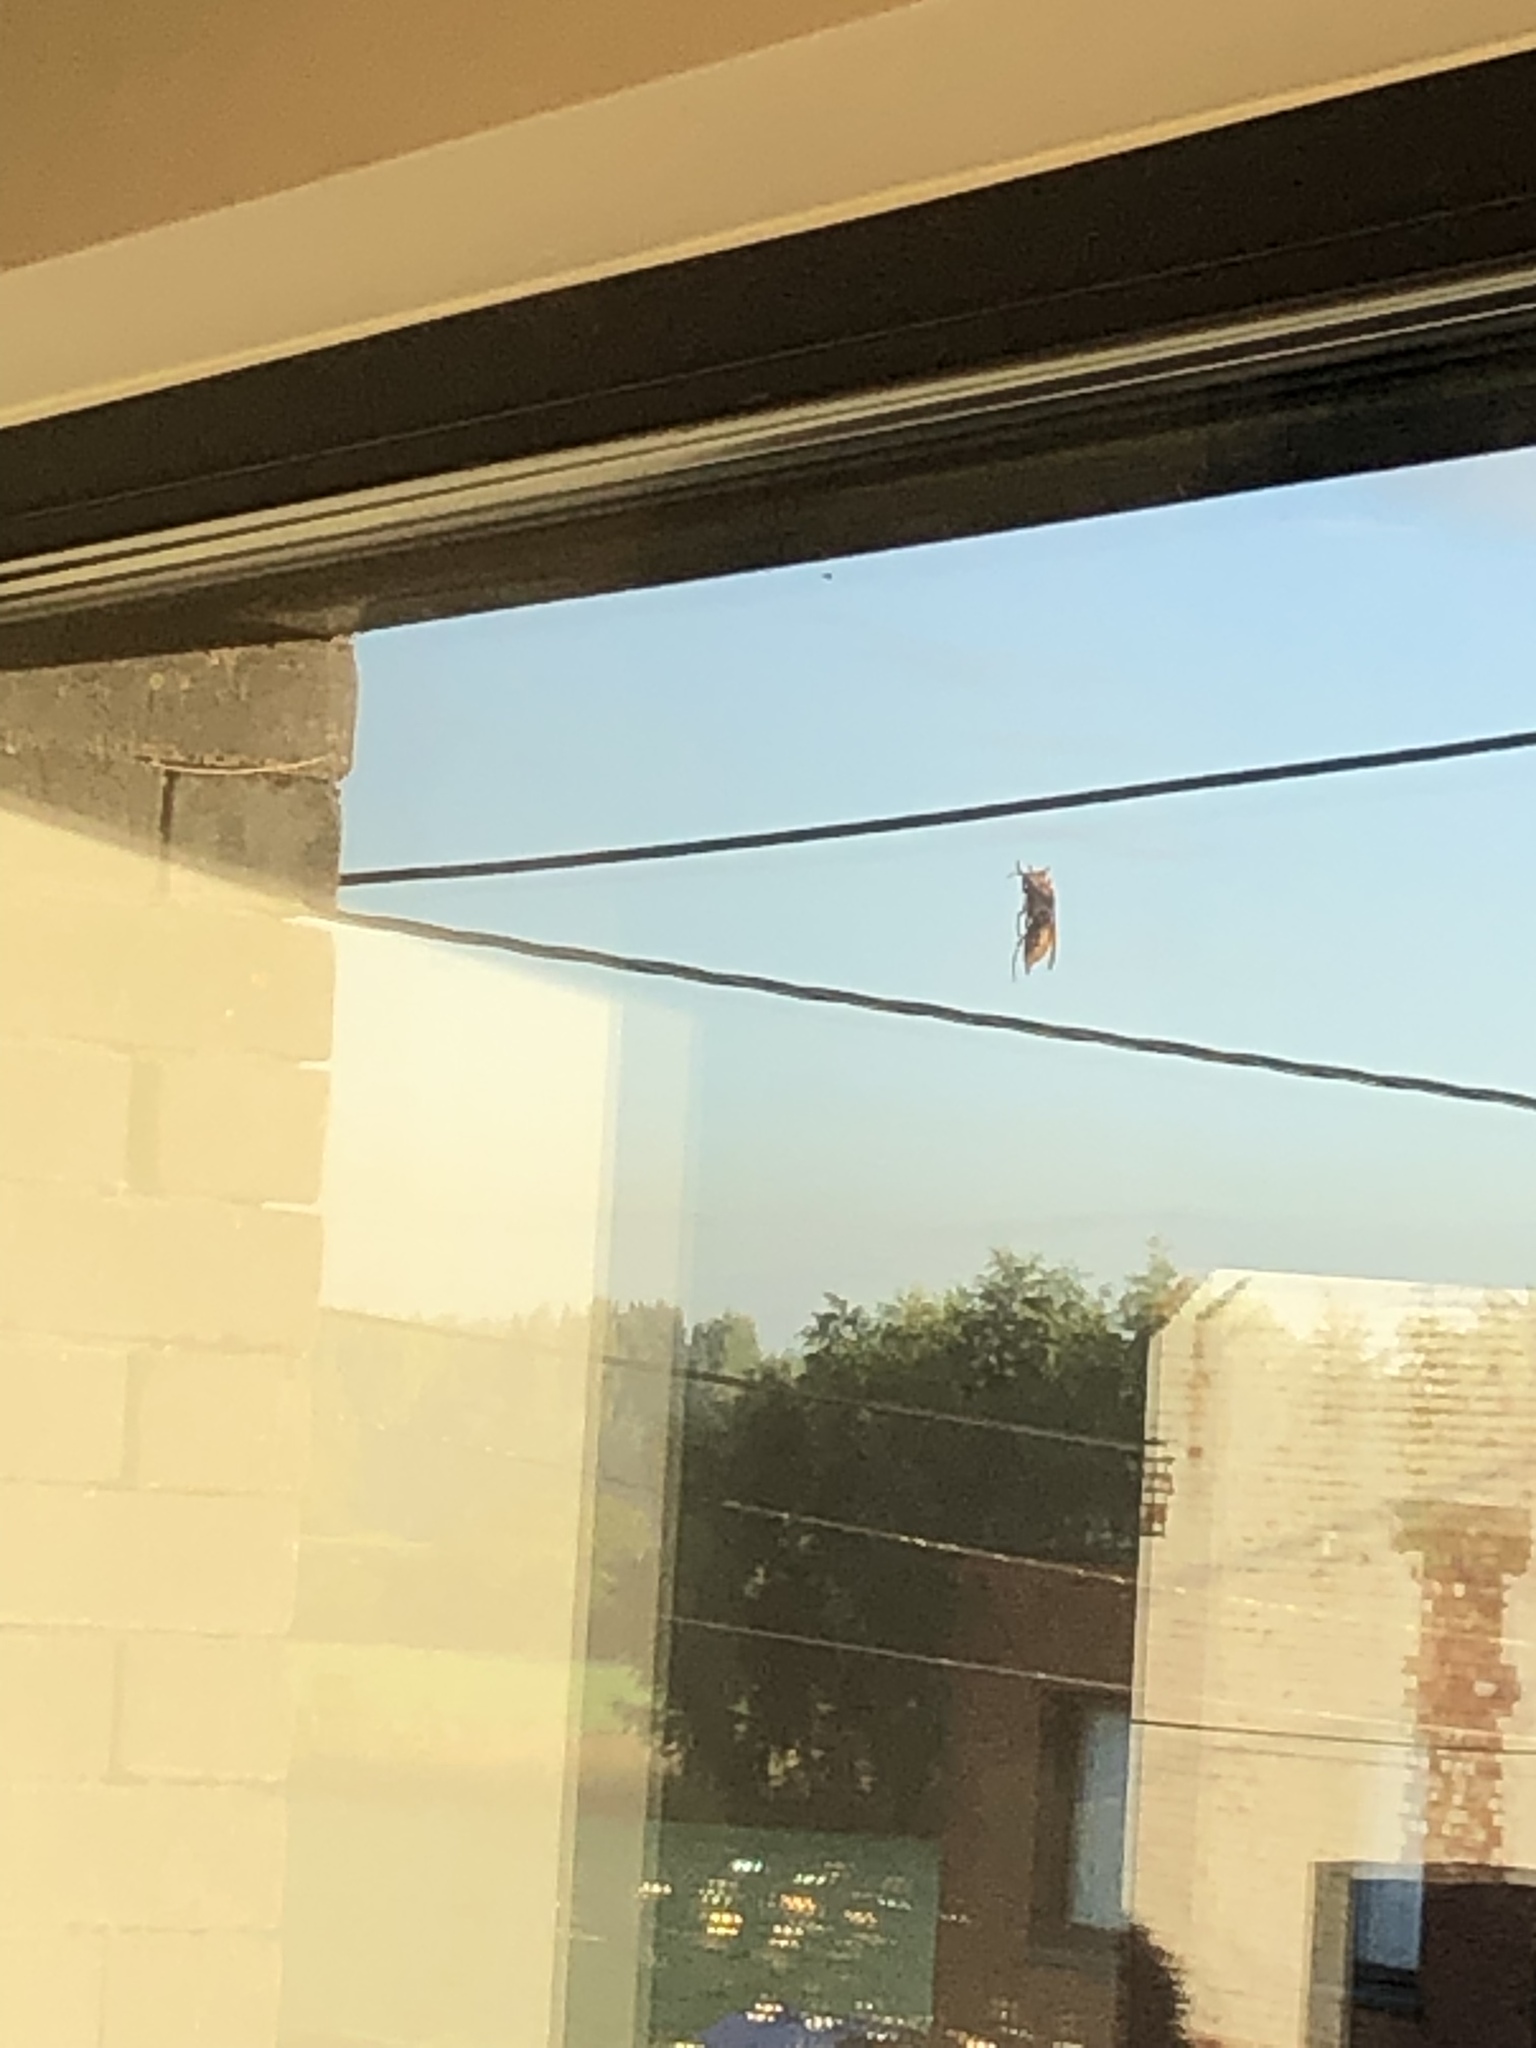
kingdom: Animalia
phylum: Arthropoda
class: Insecta
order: Hymenoptera
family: Vespidae
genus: Vespa
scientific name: Vespa crabro
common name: Hornet
